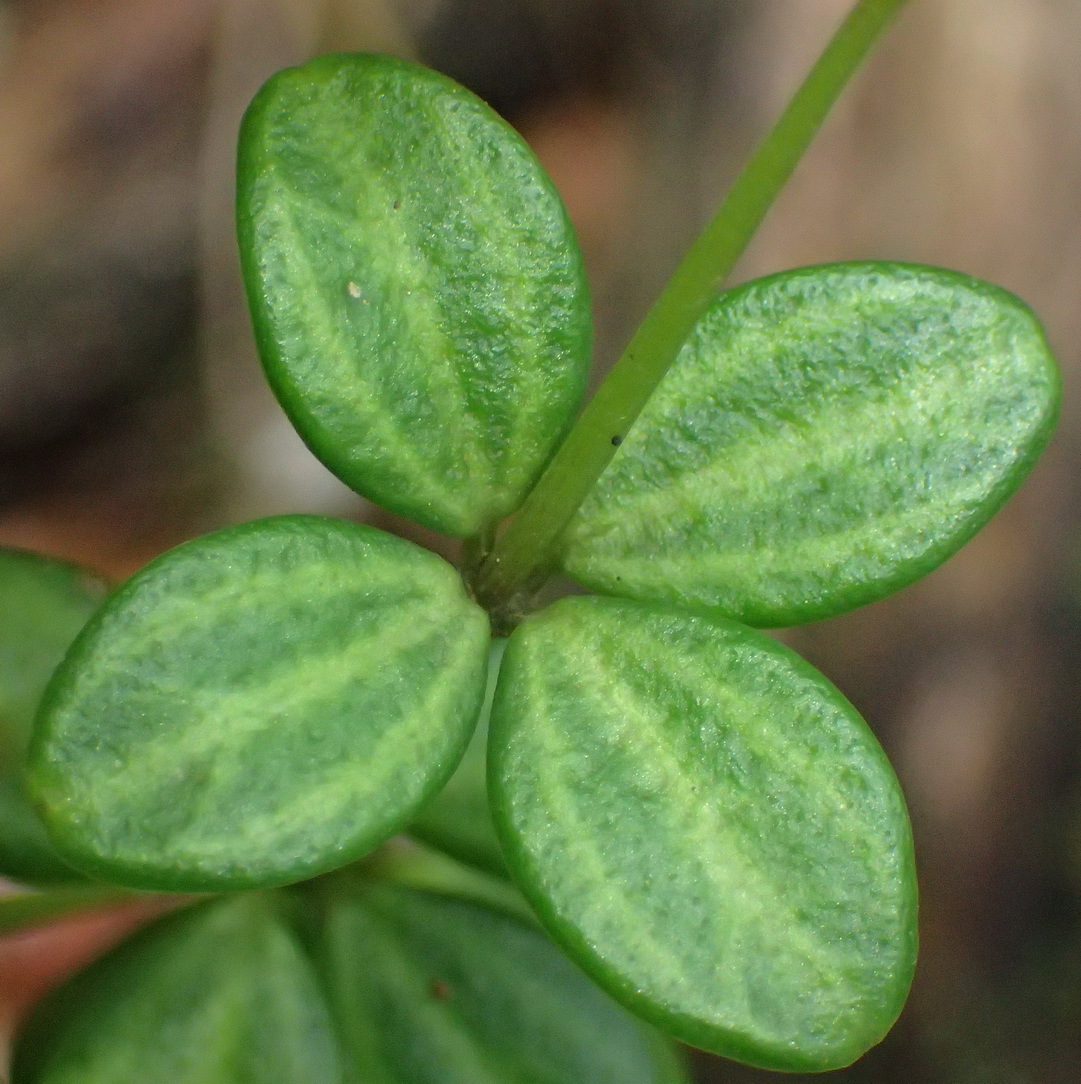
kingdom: Plantae
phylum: Tracheophyta
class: Magnoliopsida
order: Piperales
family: Piperaceae
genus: Peperomia
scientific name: Peperomia tetraphylla
